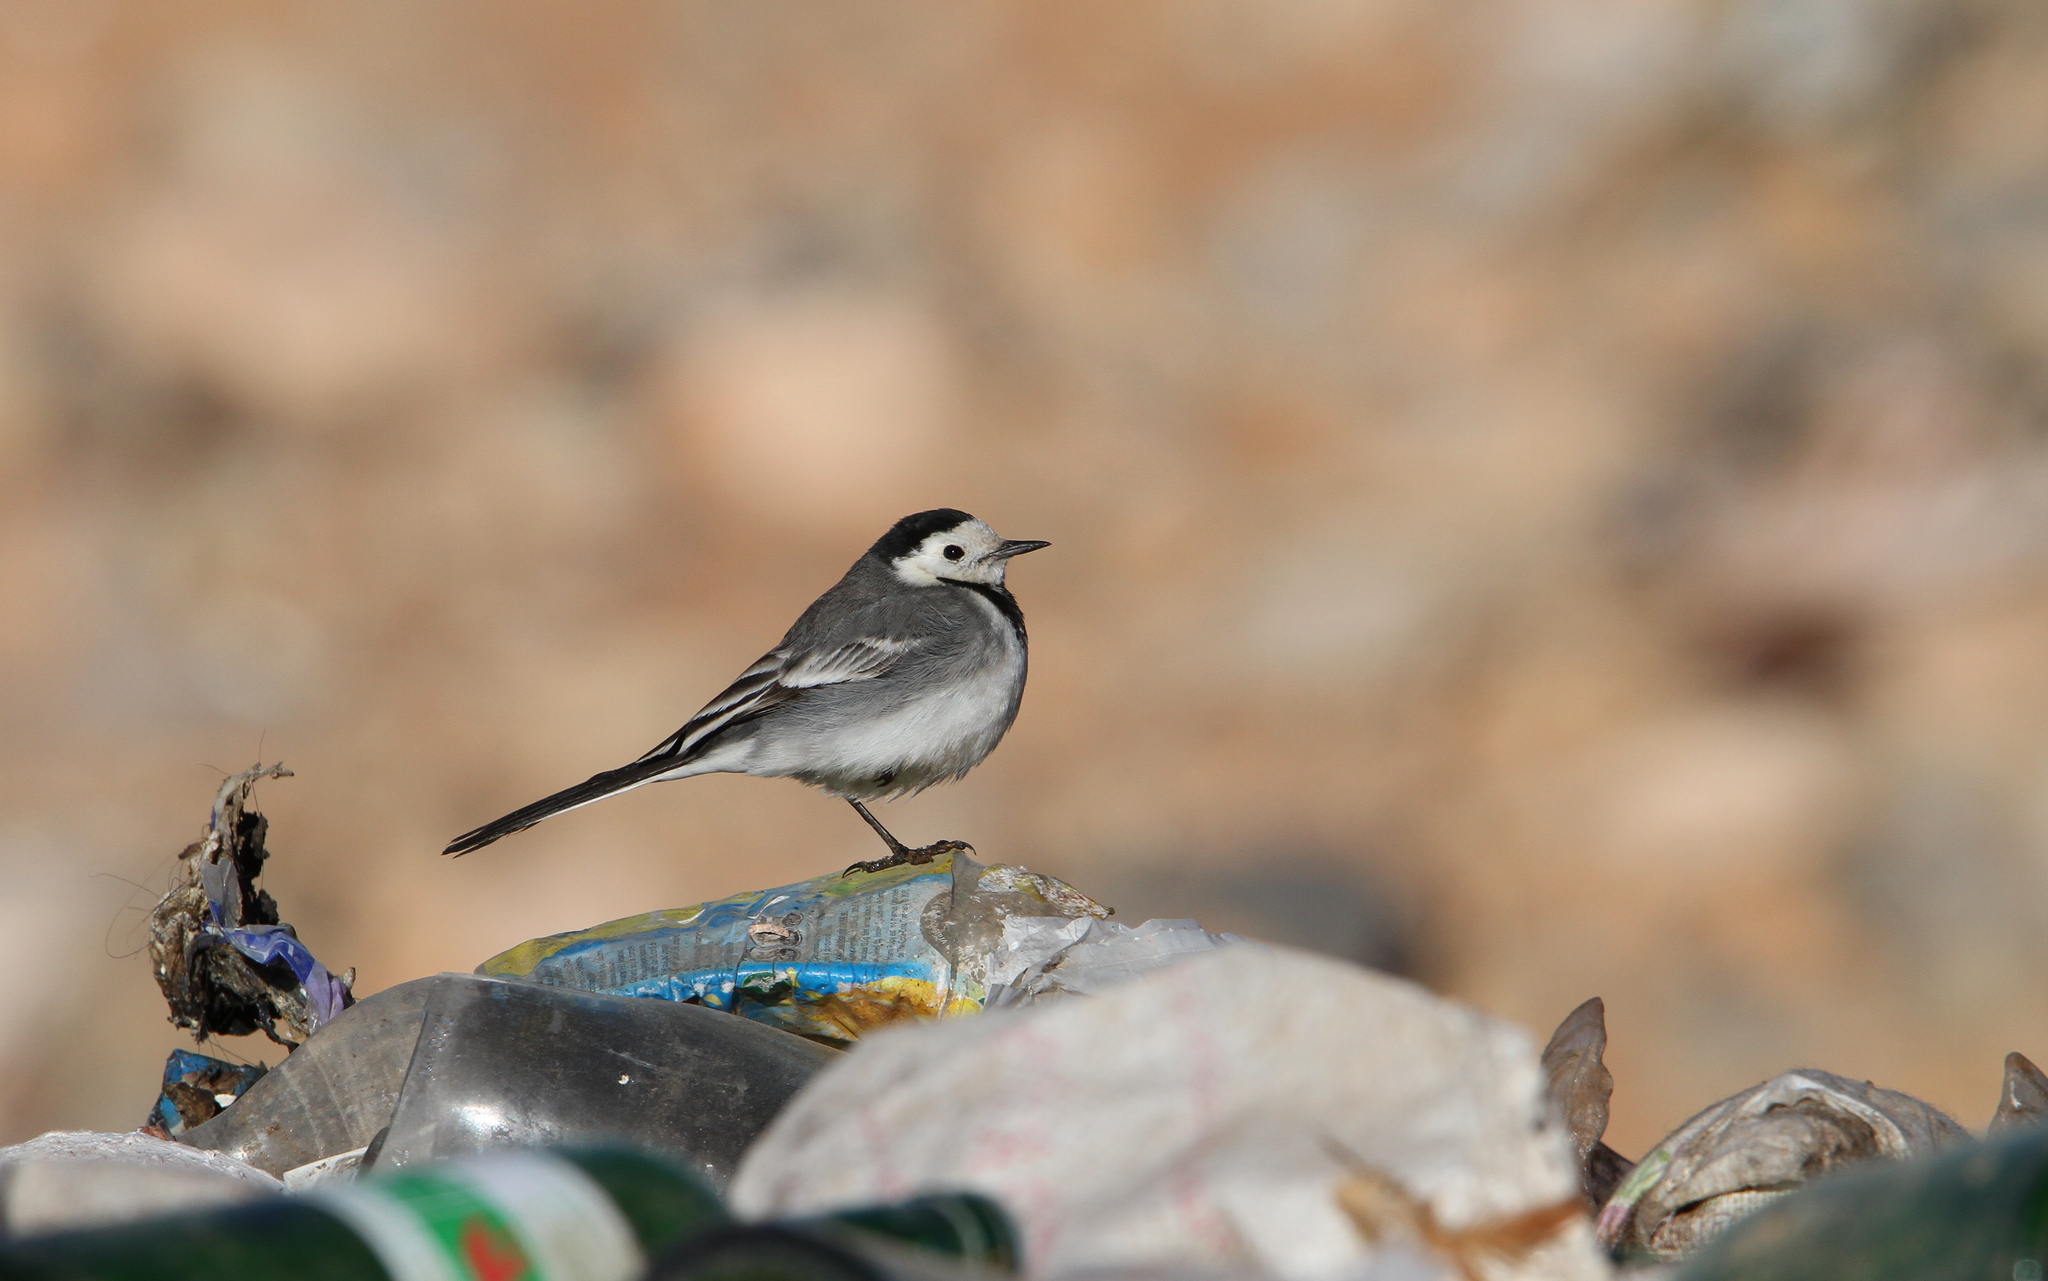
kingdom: Animalia
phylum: Chordata
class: Aves
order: Passeriformes
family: Motacillidae
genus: Motacilla
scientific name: Motacilla alba
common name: White wagtail
